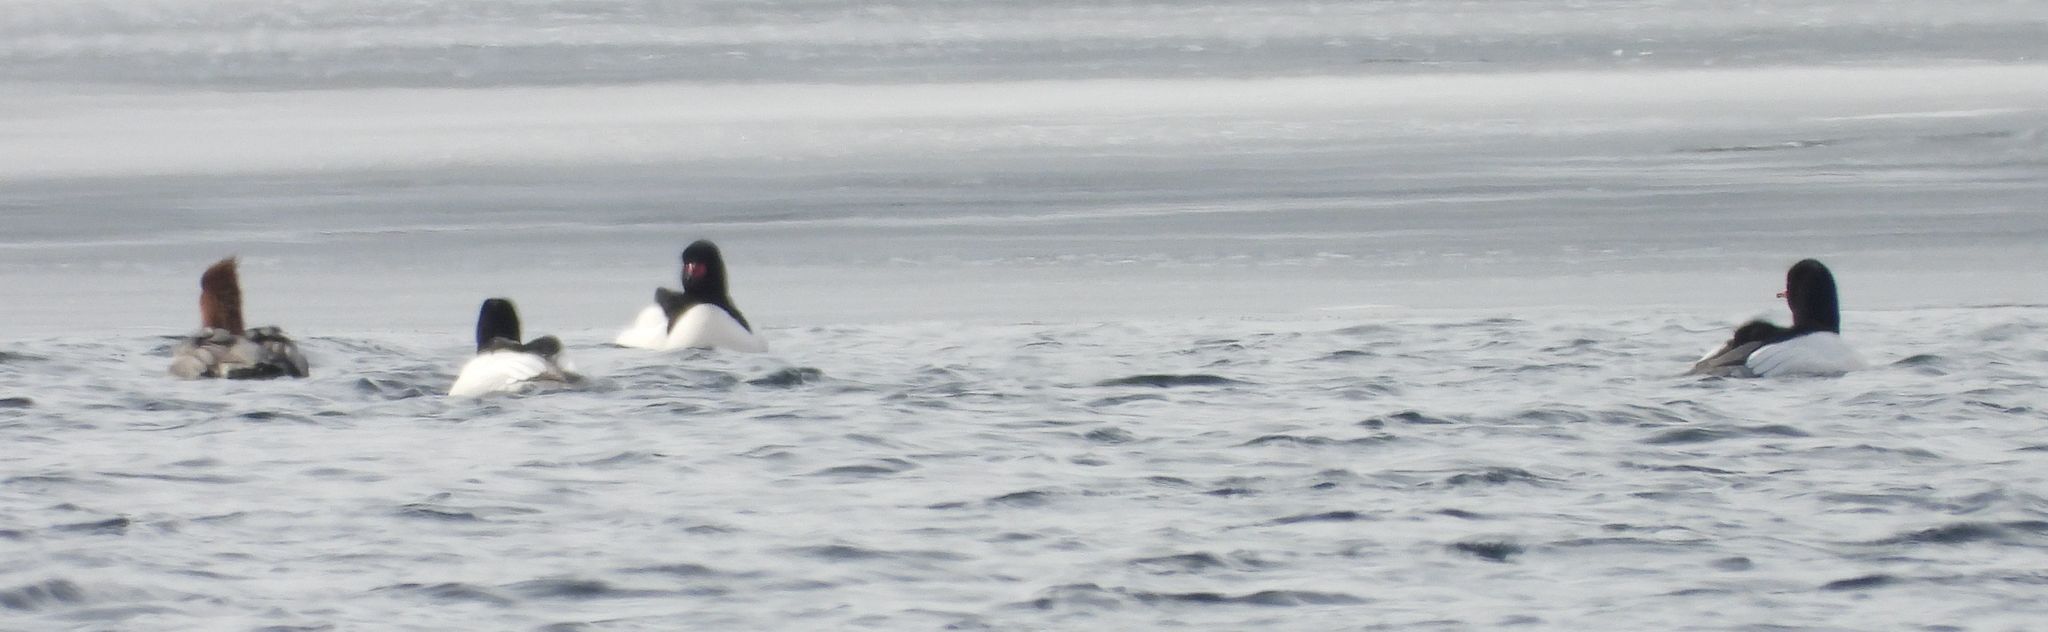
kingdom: Animalia
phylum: Chordata
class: Aves
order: Anseriformes
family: Anatidae
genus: Mergus
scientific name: Mergus merganser
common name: Common merganser
